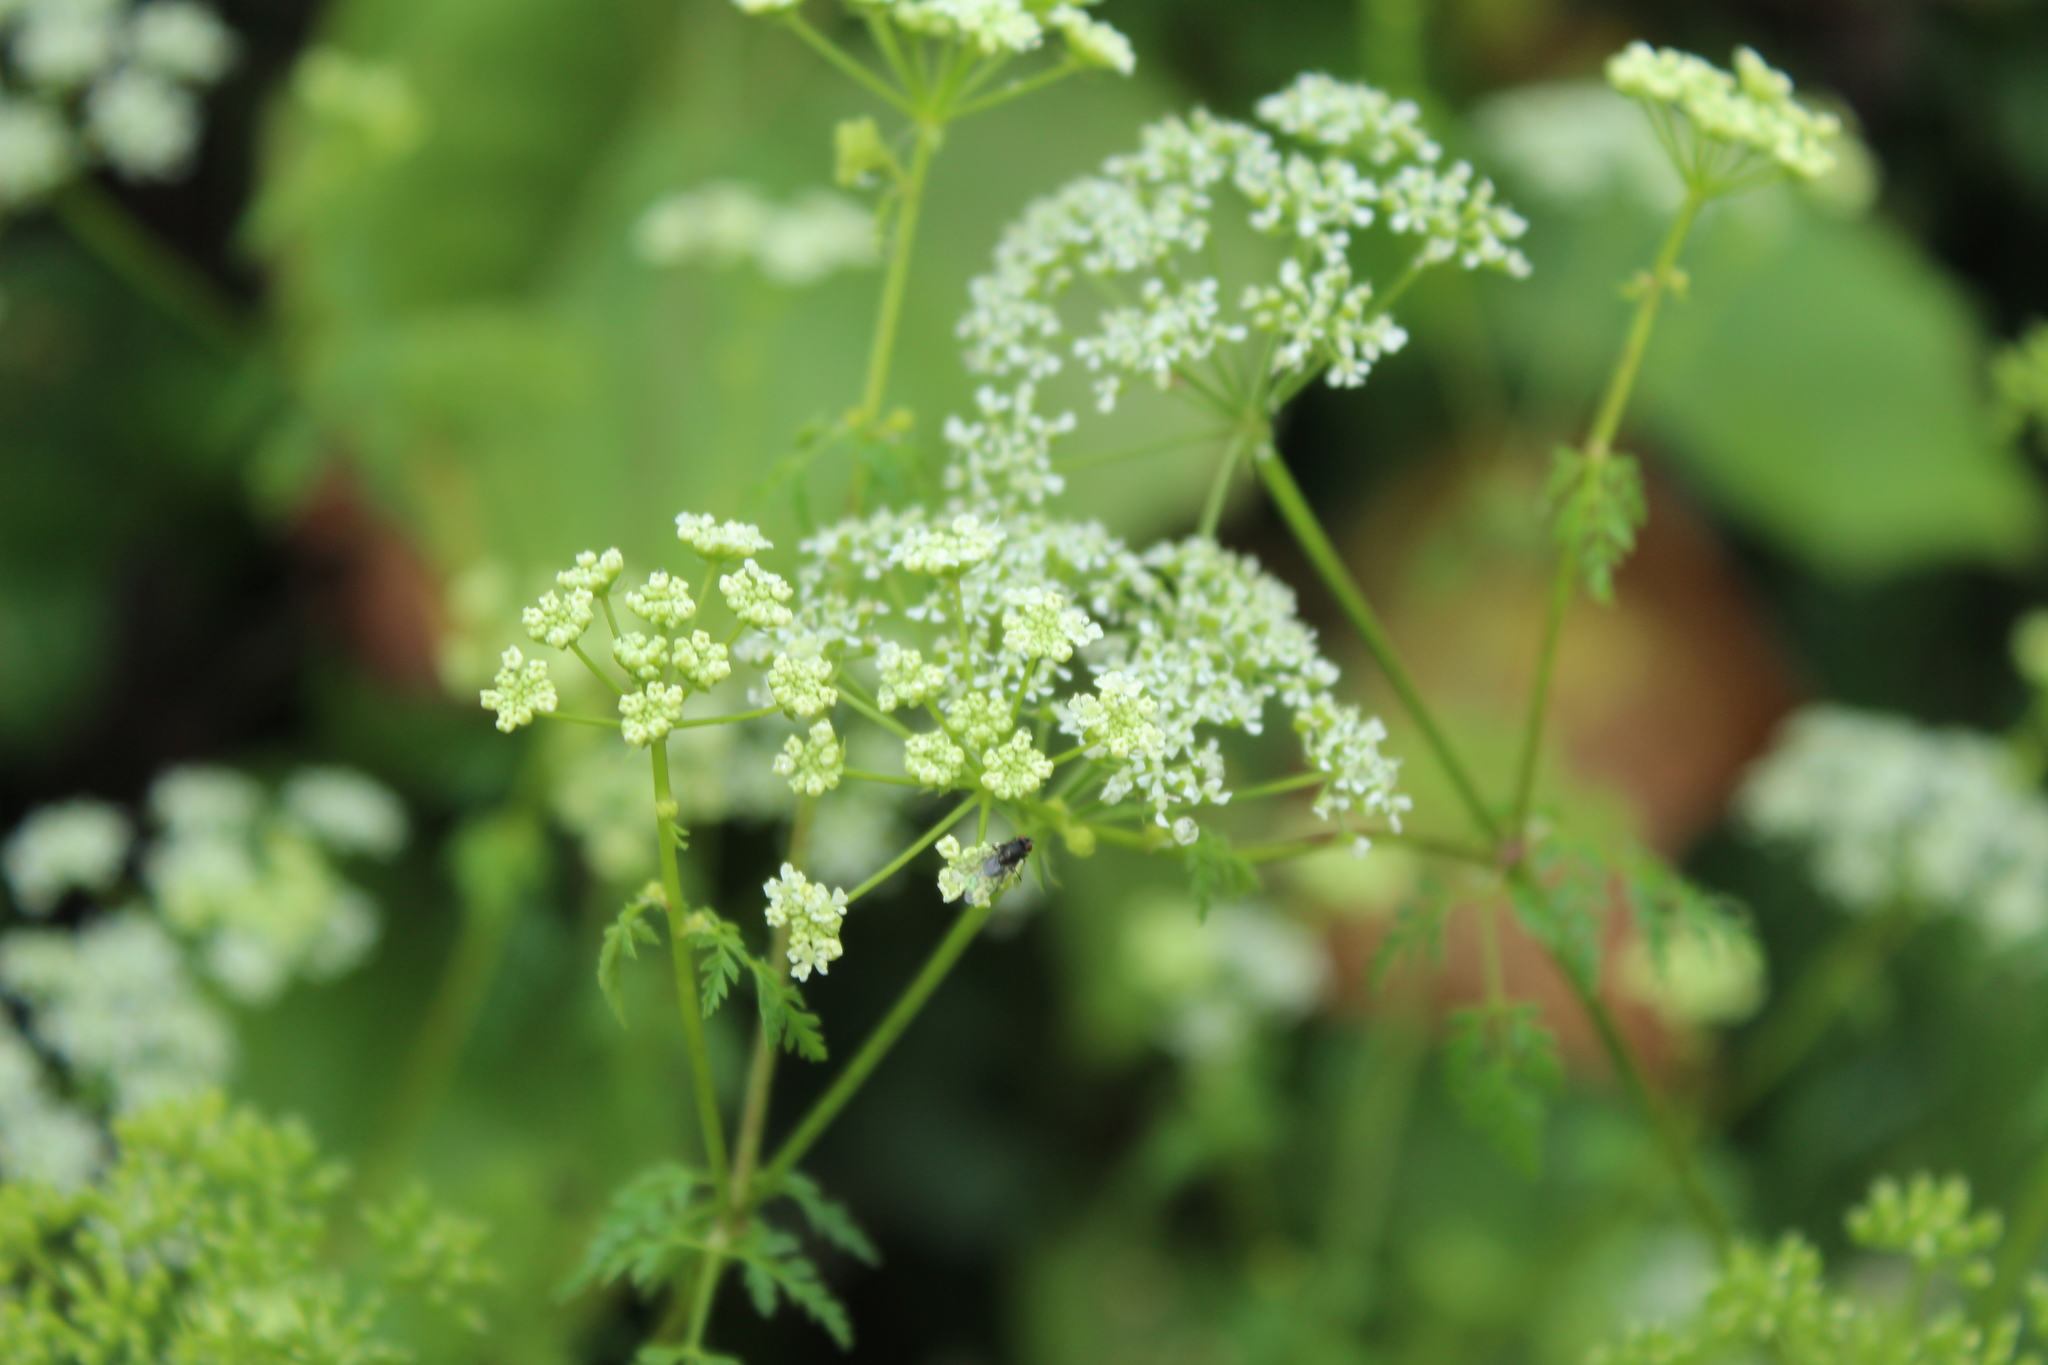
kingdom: Plantae
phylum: Tracheophyta
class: Magnoliopsida
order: Apiales
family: Apiaceae
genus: Conium
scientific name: Conium maculatum
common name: Hemlock
